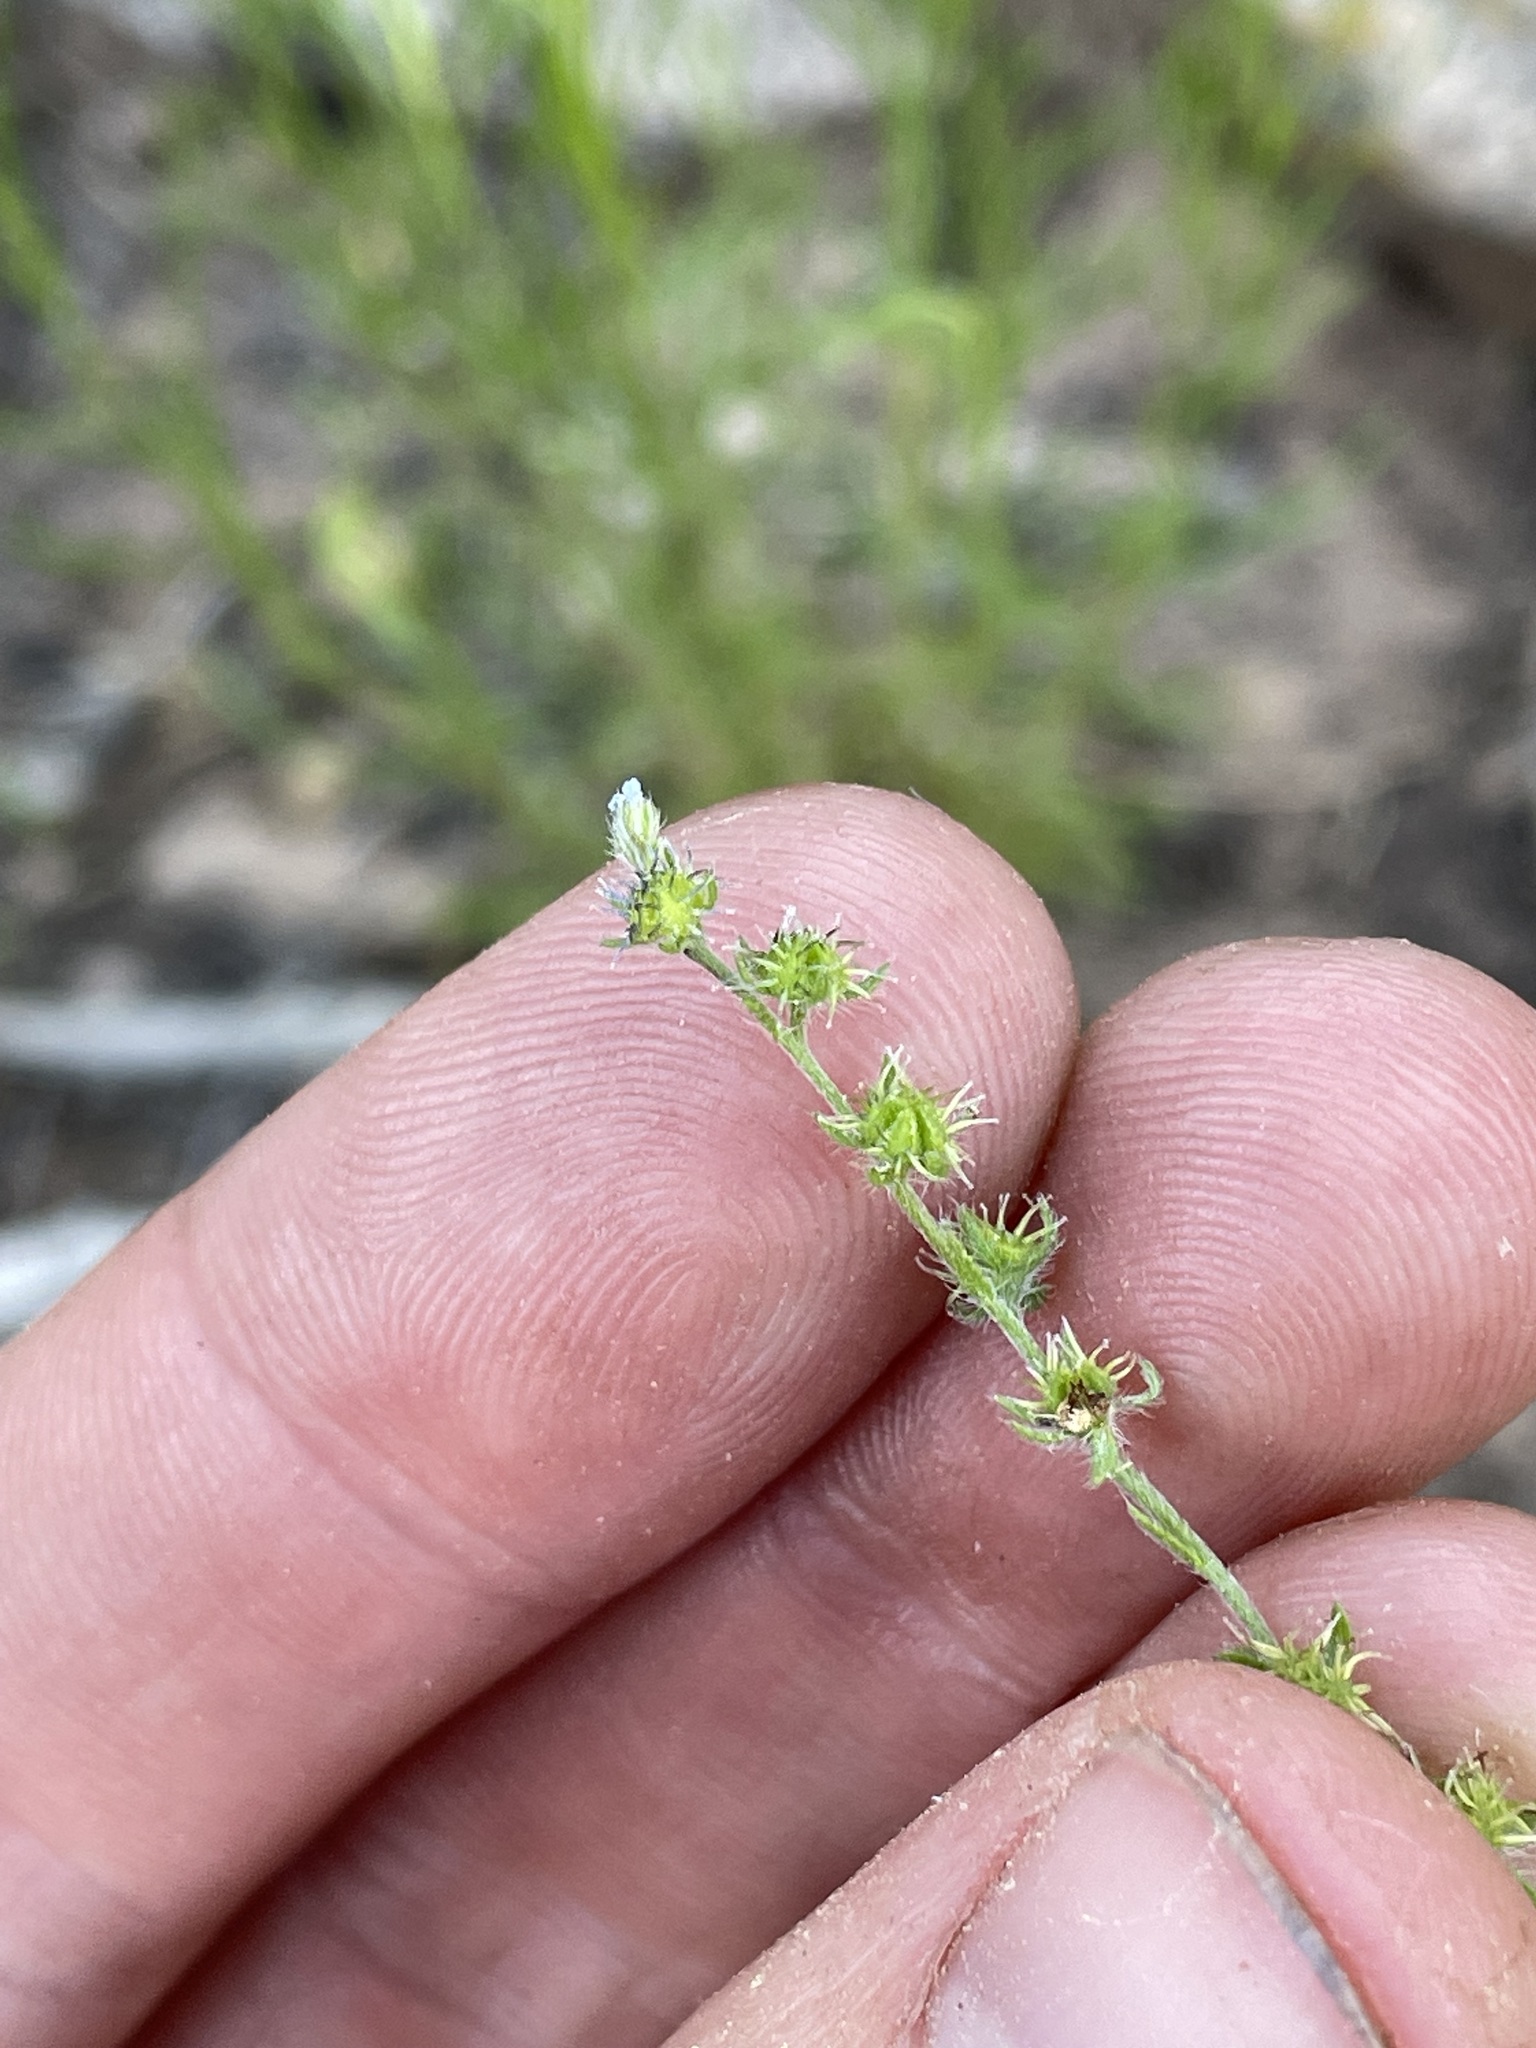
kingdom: Plantae
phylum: Tracheophyta
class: Magnoliopsida
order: Boraginales
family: Boraginaceae
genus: Lappula
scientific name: Lappula occidentalis
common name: Western stickseed
